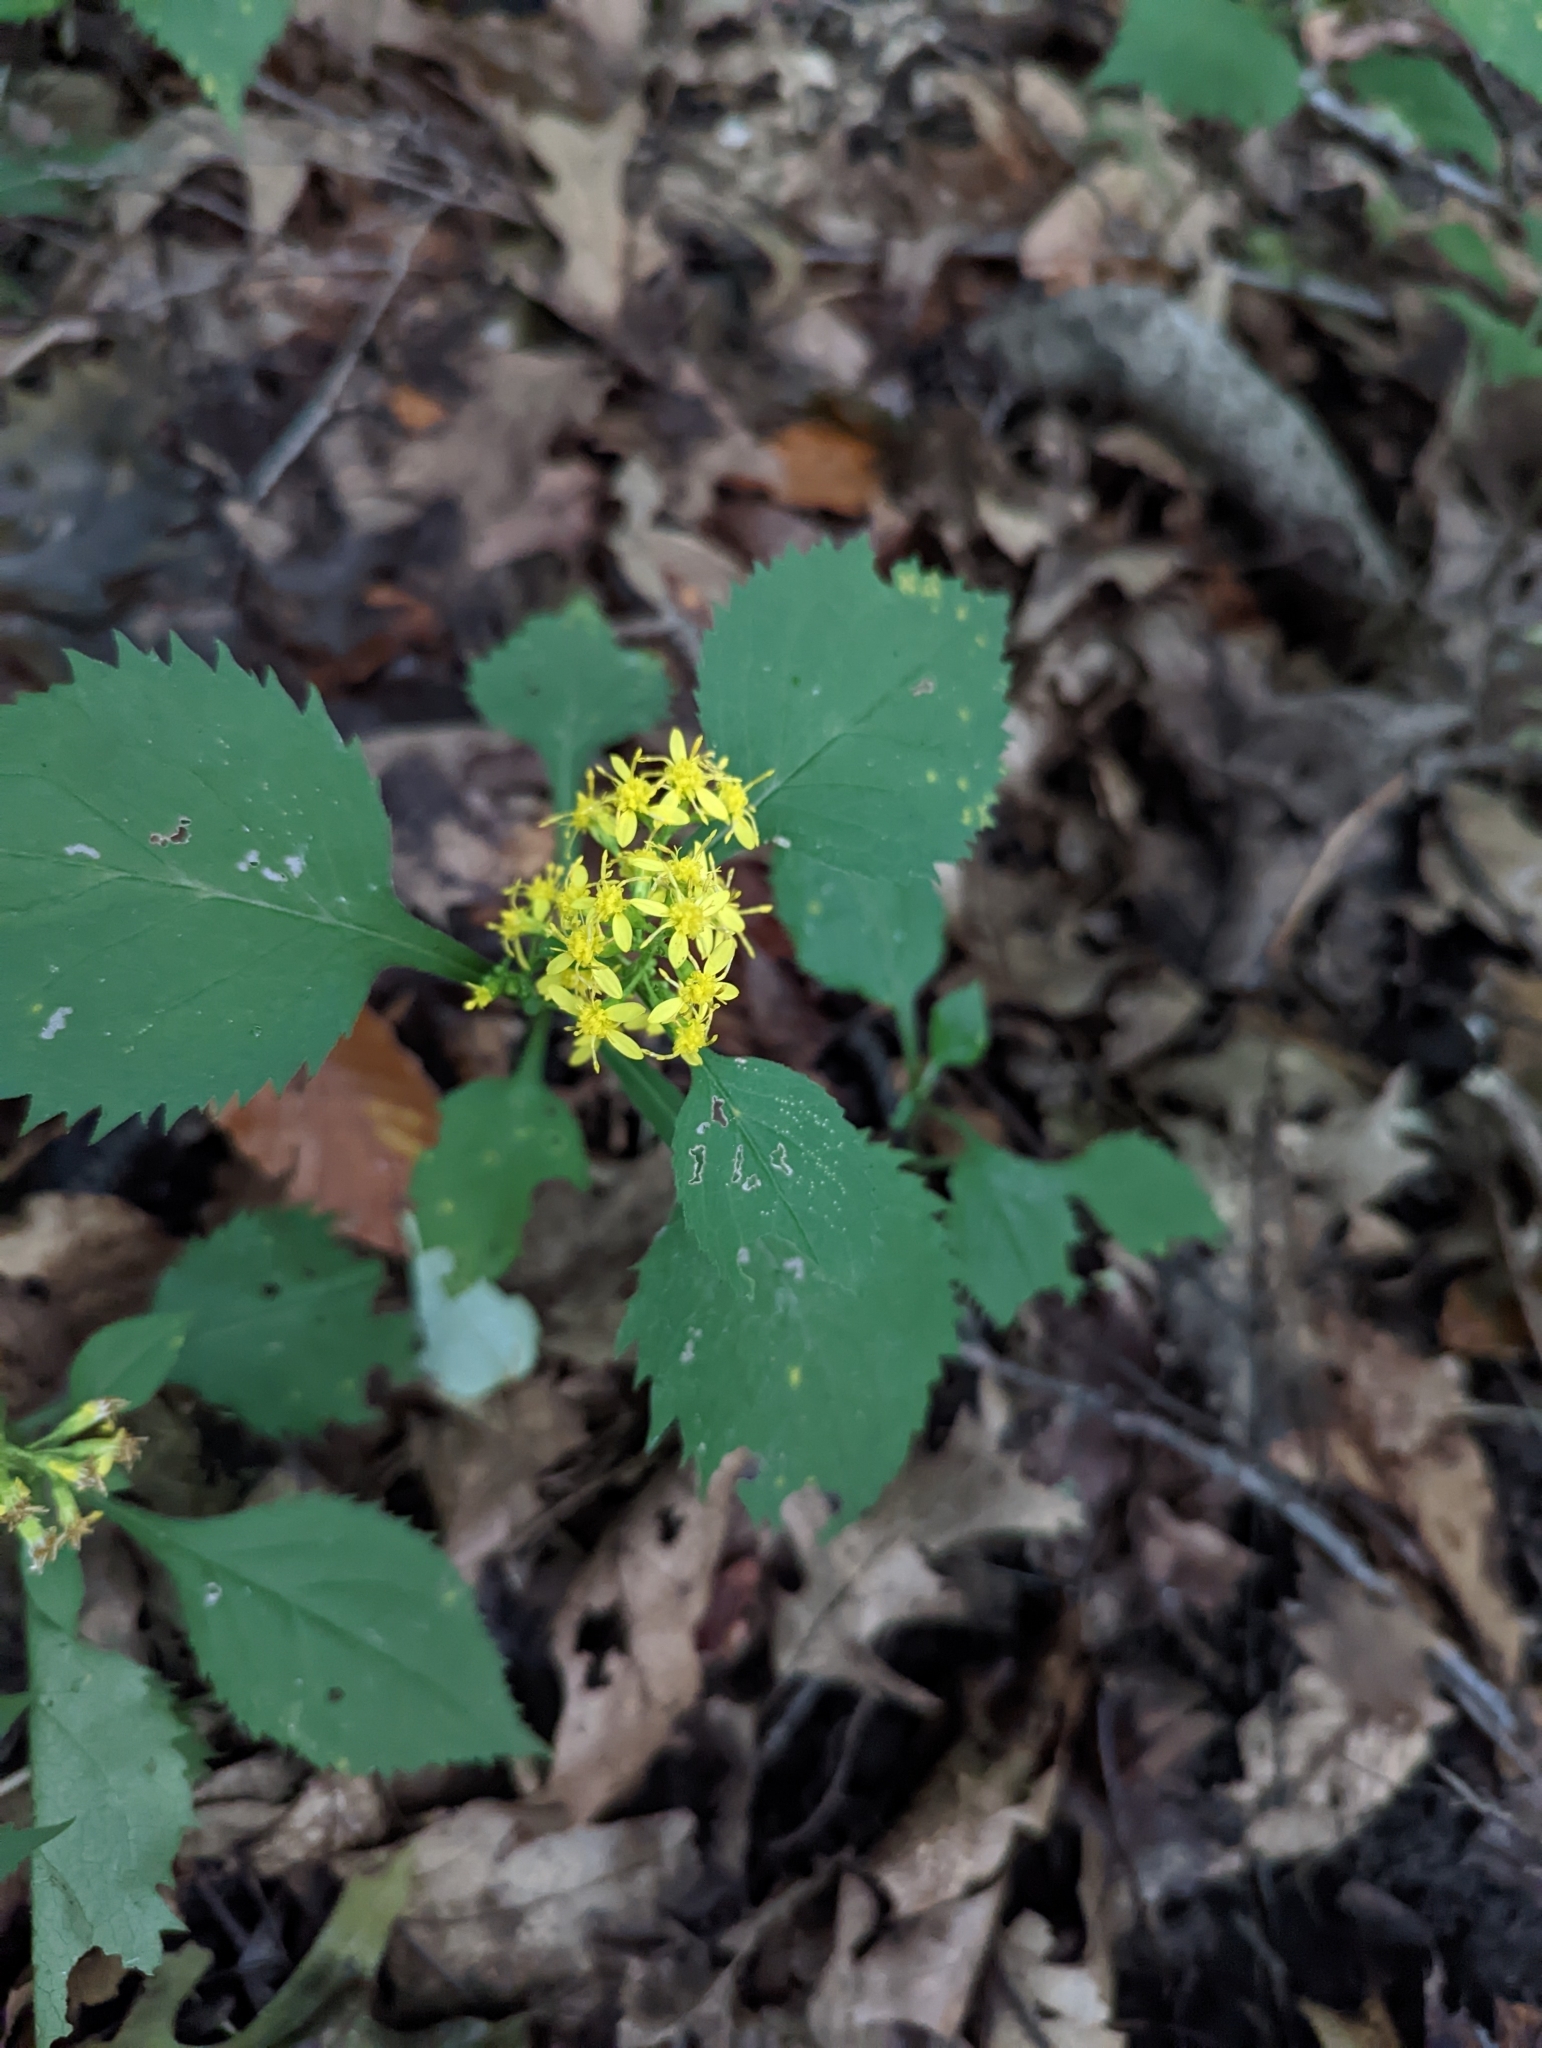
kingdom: Plantae
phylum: Tracheophyta
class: Magnoliopsida
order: Asterales
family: Asteraceae
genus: Solidago
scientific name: Solidago flexicaulis
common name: Zig-zag goldenrod
